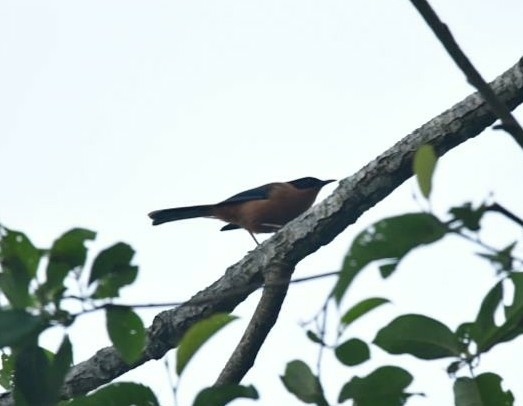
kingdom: Animalia
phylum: Chordata
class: Aves
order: Passeriformes
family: Leiothrichidae
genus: Heterophasia
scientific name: Heterophasia capistrata
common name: Rufous sibia
